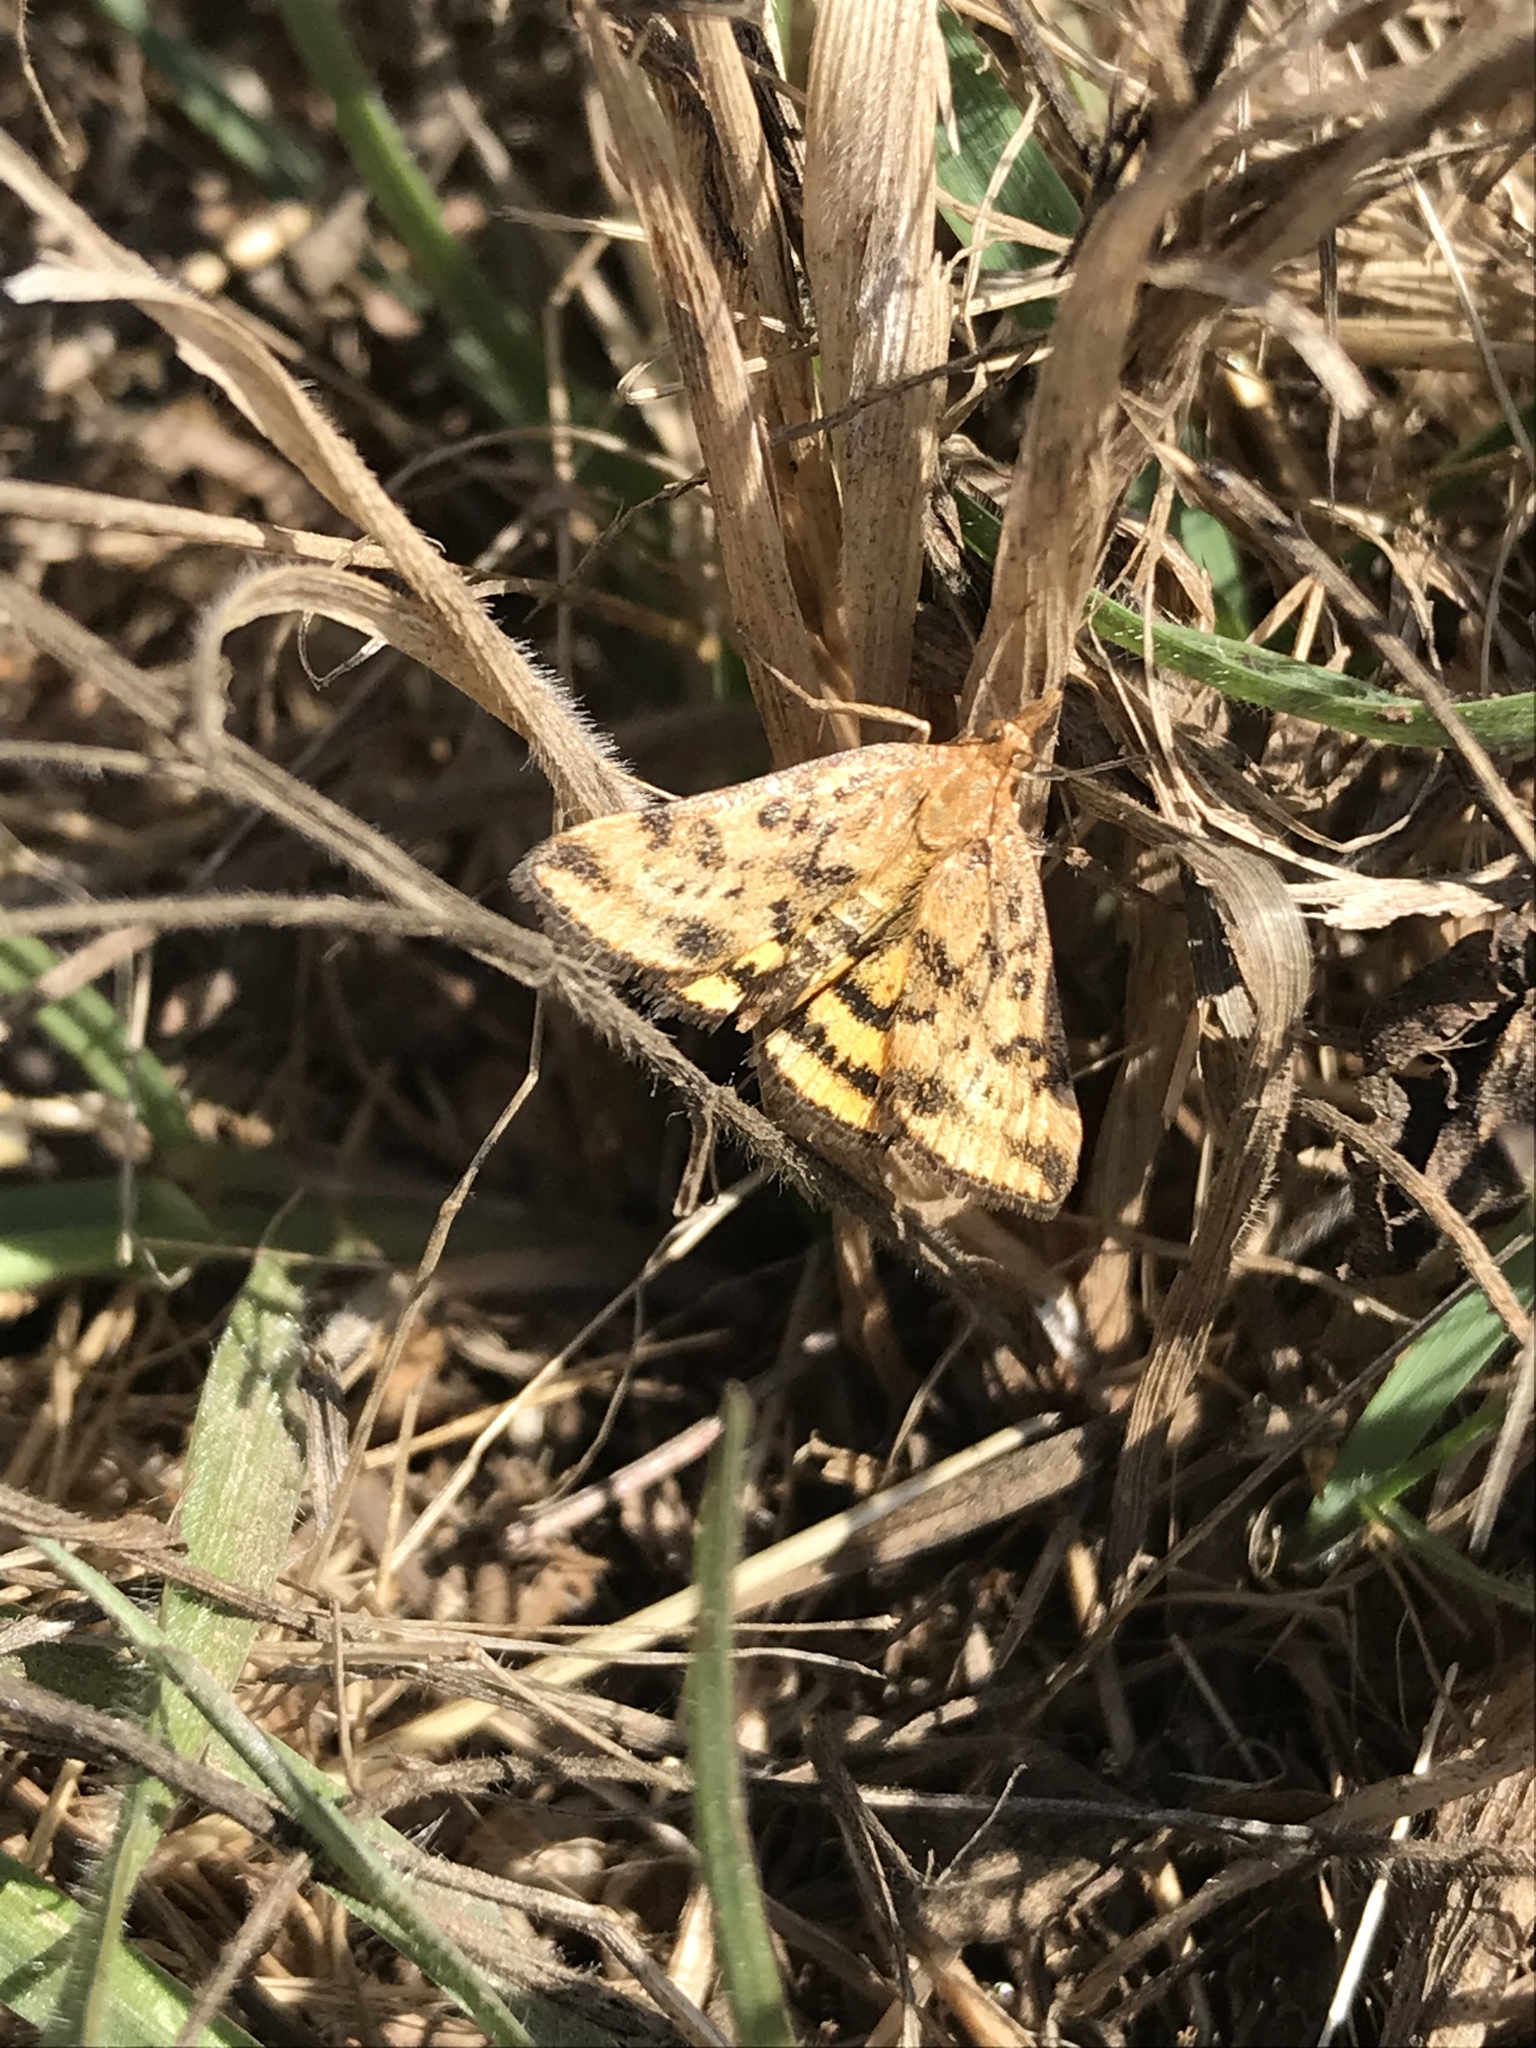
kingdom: Animalia
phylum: Arthropoda
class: Insecta
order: Lepidoptera
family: Crambidae
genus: Pyrausta
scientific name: Pyrausta subsequalis
